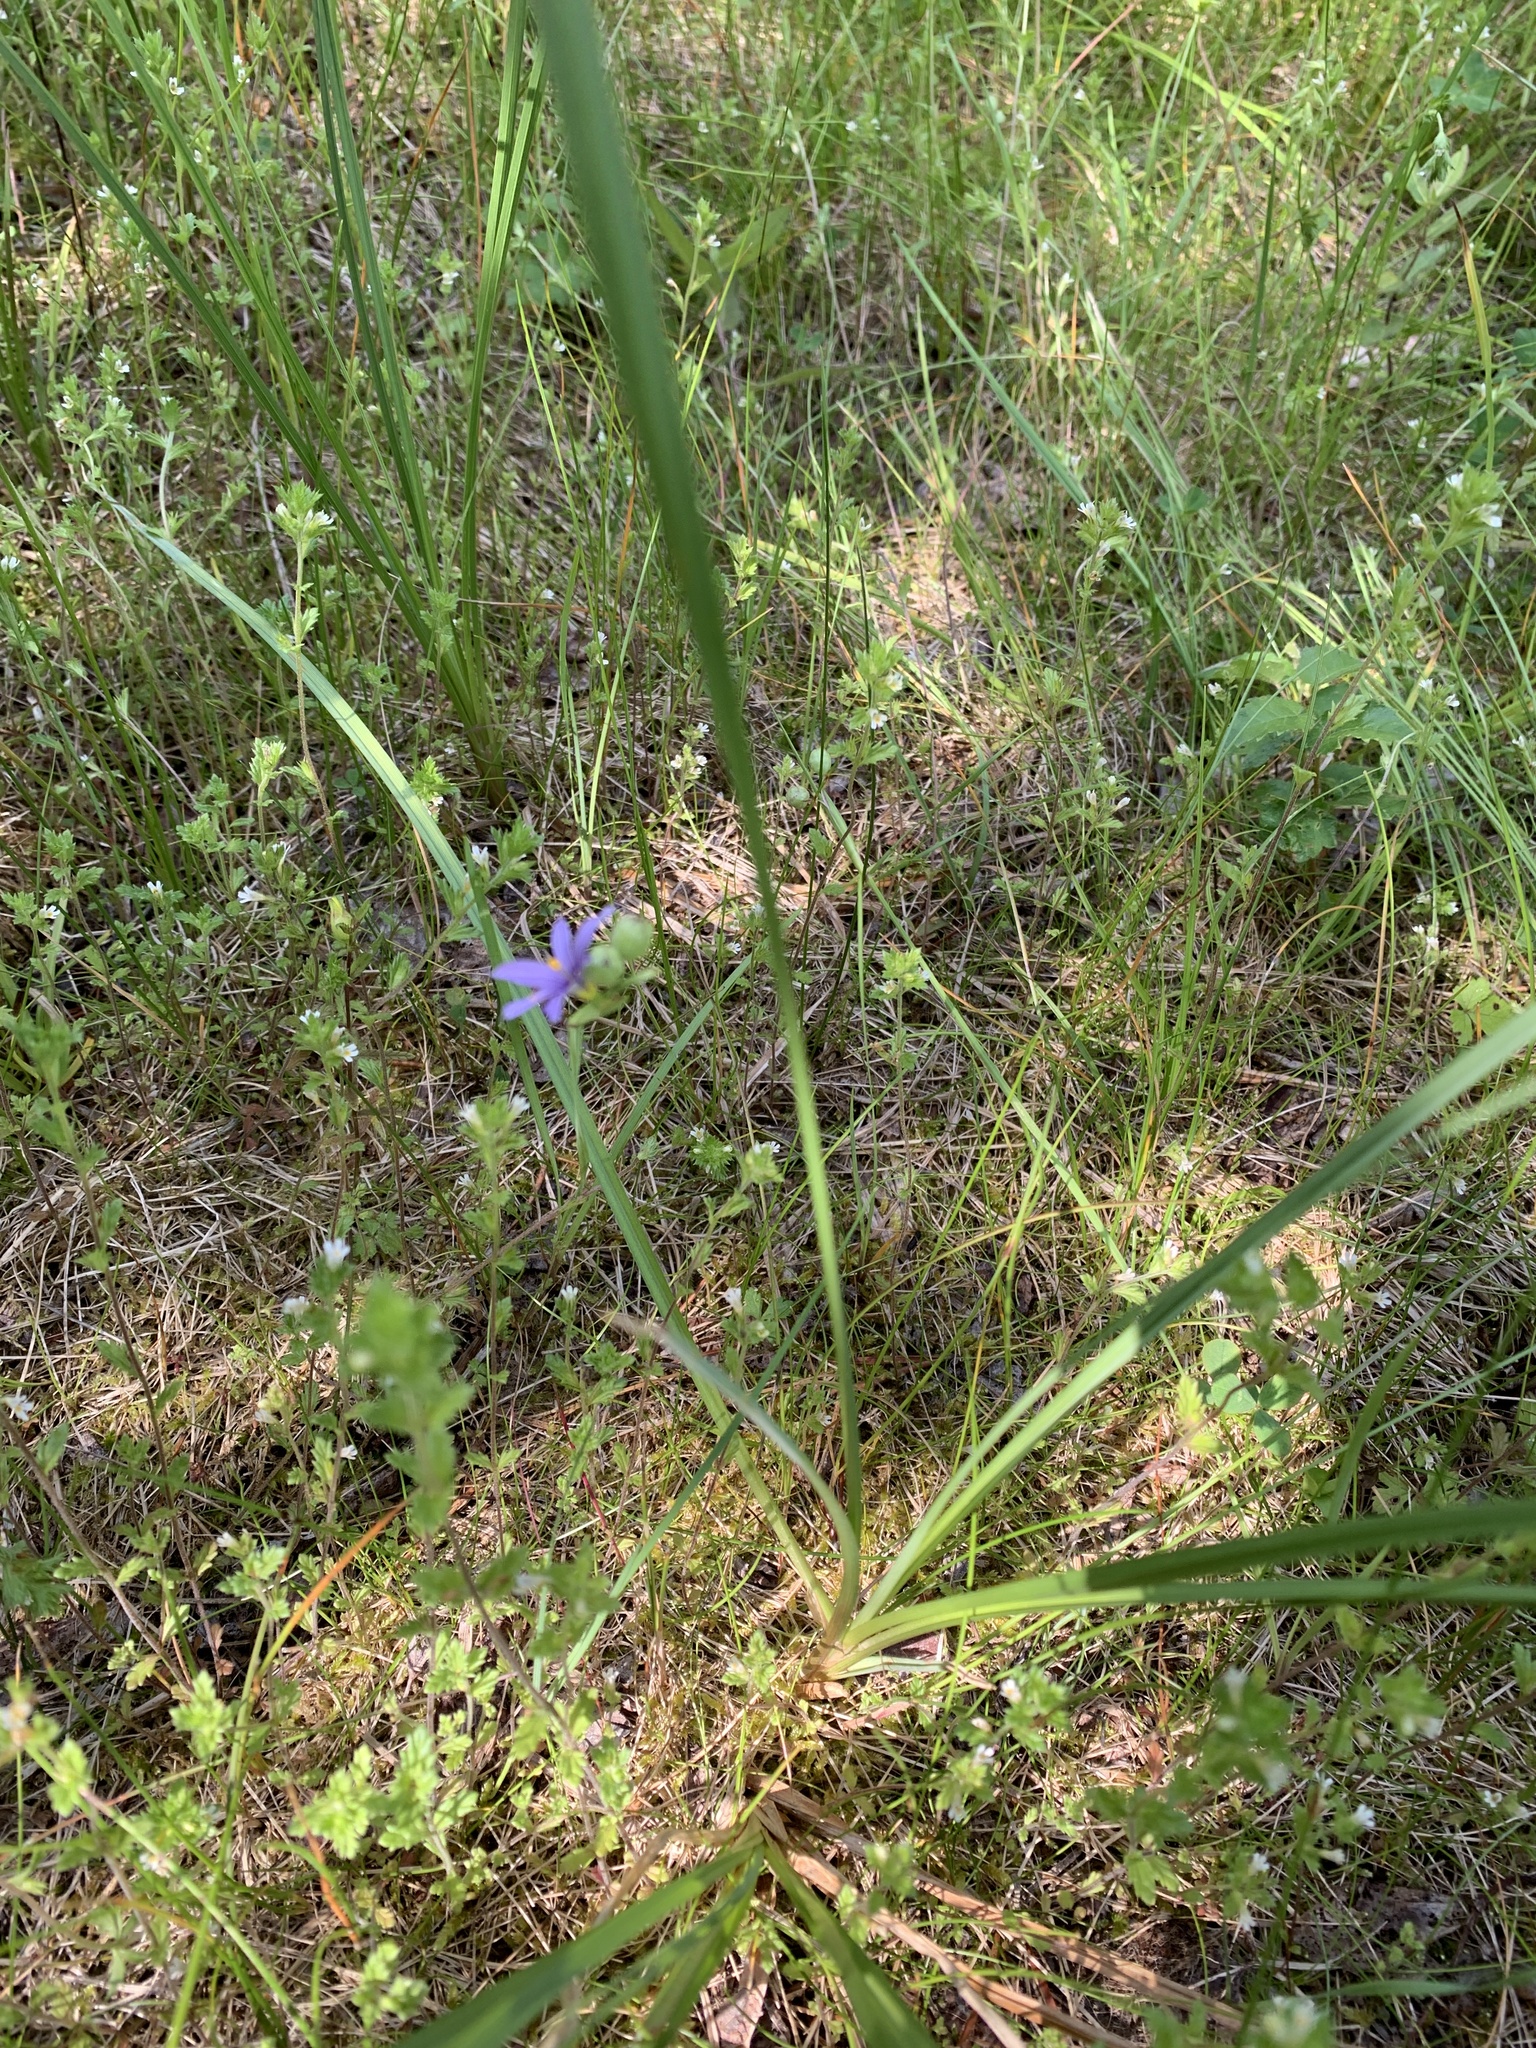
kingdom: Plantae
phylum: Tracheophyta
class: Liliopsida
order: Asparagales
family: Iridaceae
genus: Sisyrinchium
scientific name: Sisyrinchium montanum
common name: American blue-eyed-grass
